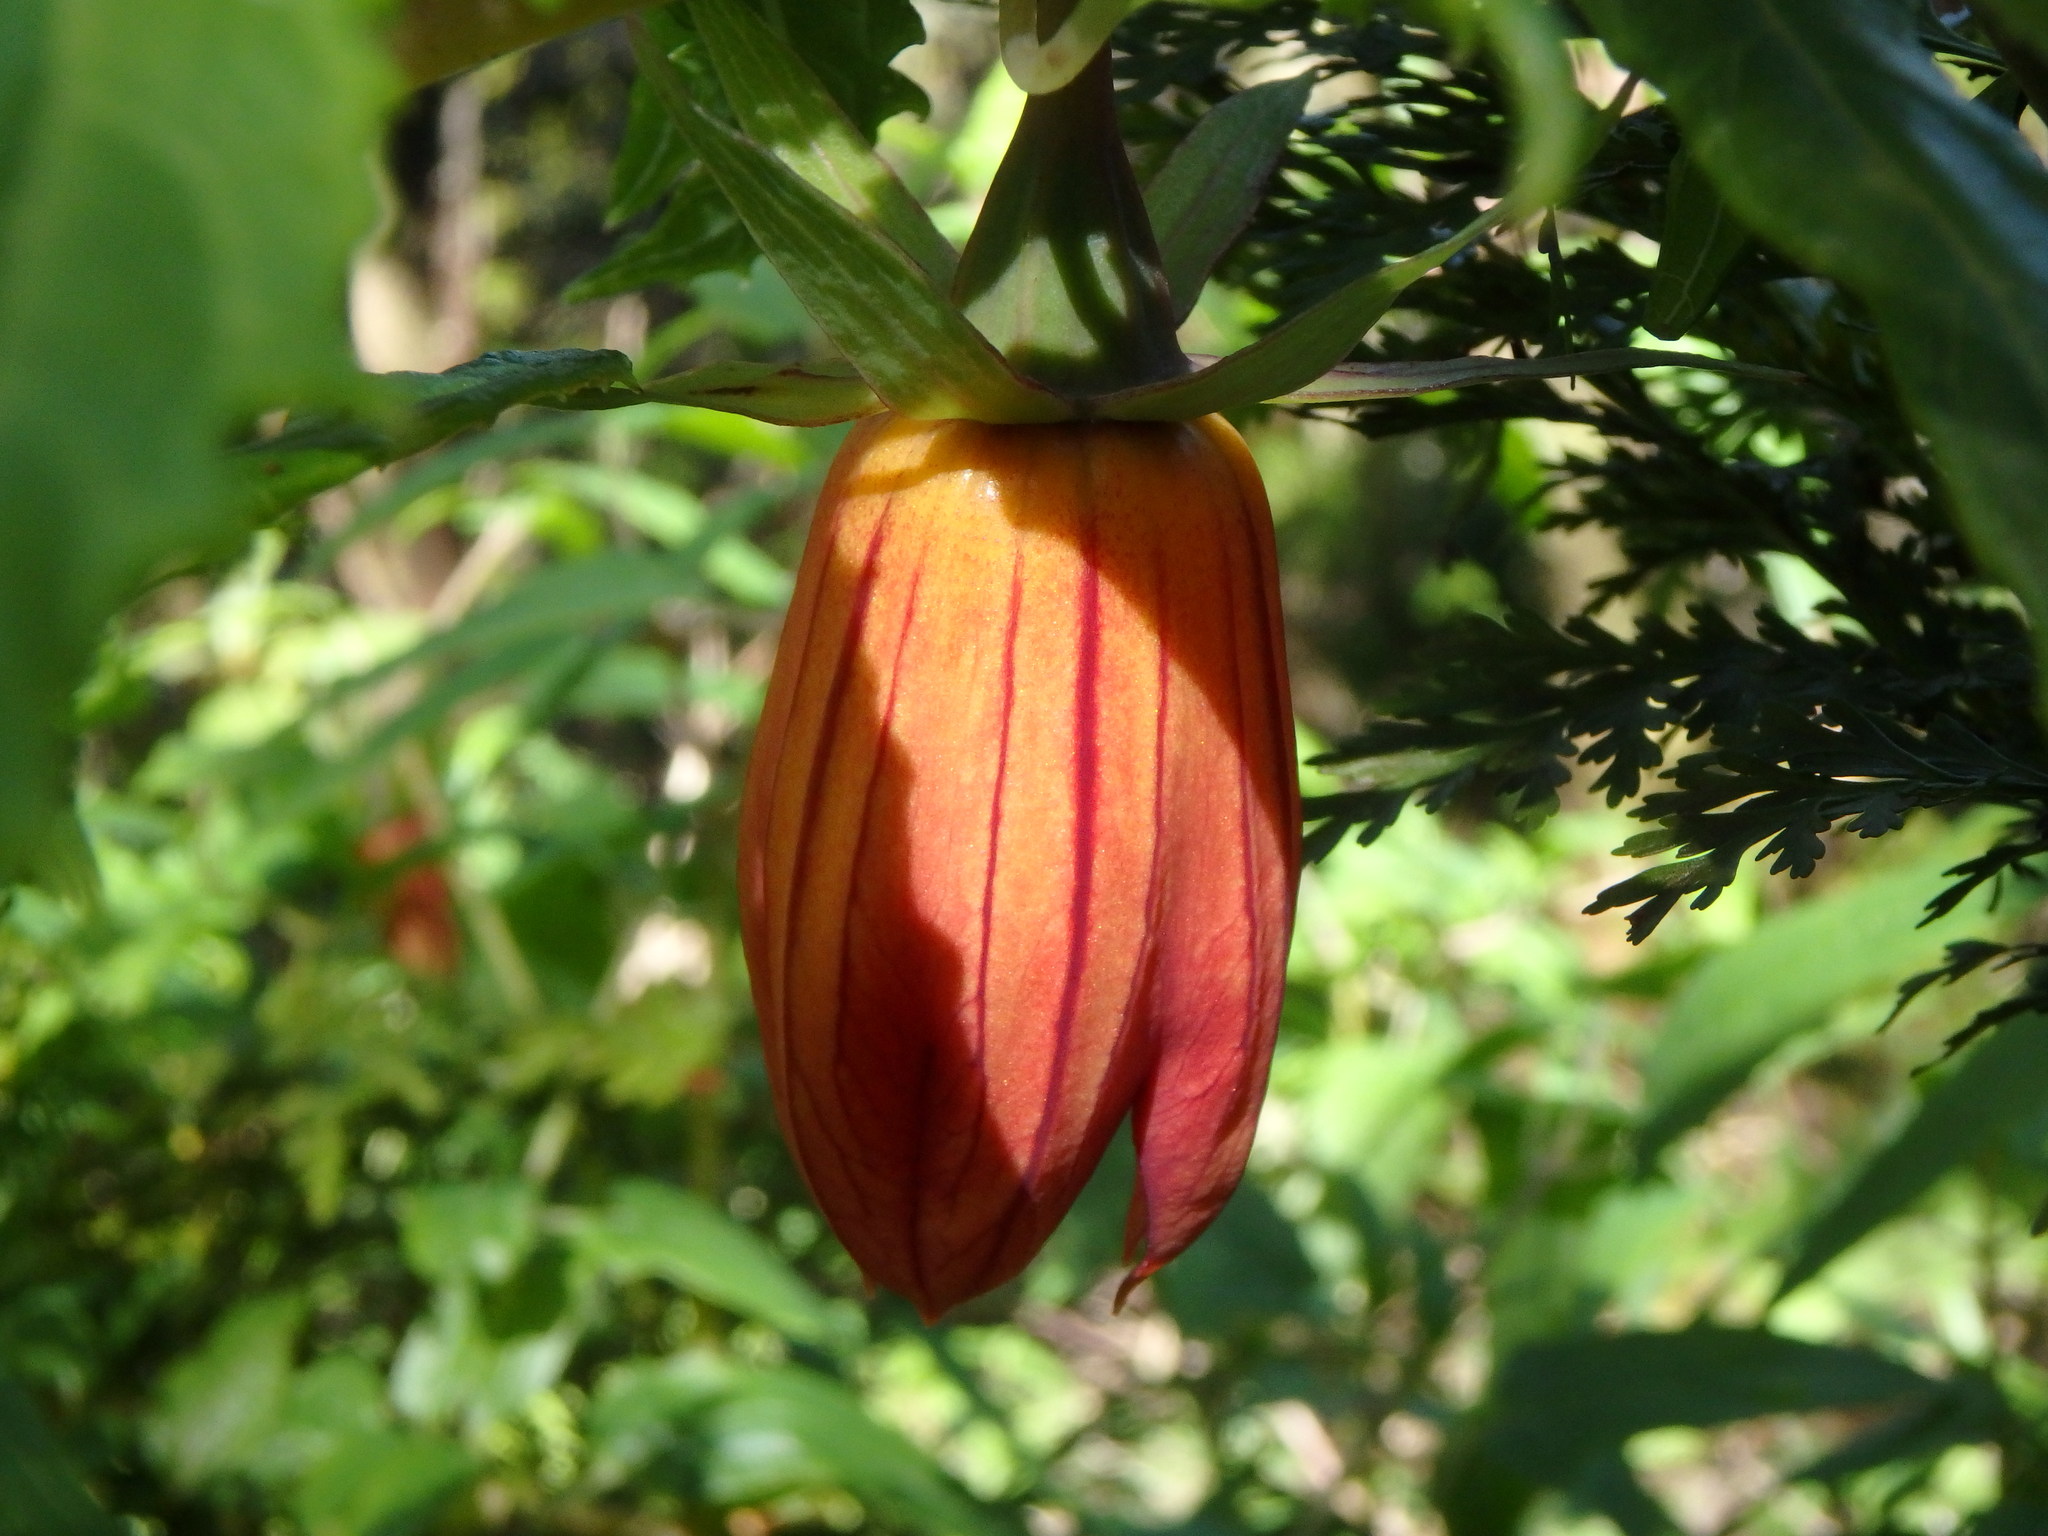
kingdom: Plantae
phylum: Tracheophyta
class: Magnoliopsida
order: Asterales
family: Campanulaceae
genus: Canarina
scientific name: Canarina canariensis
